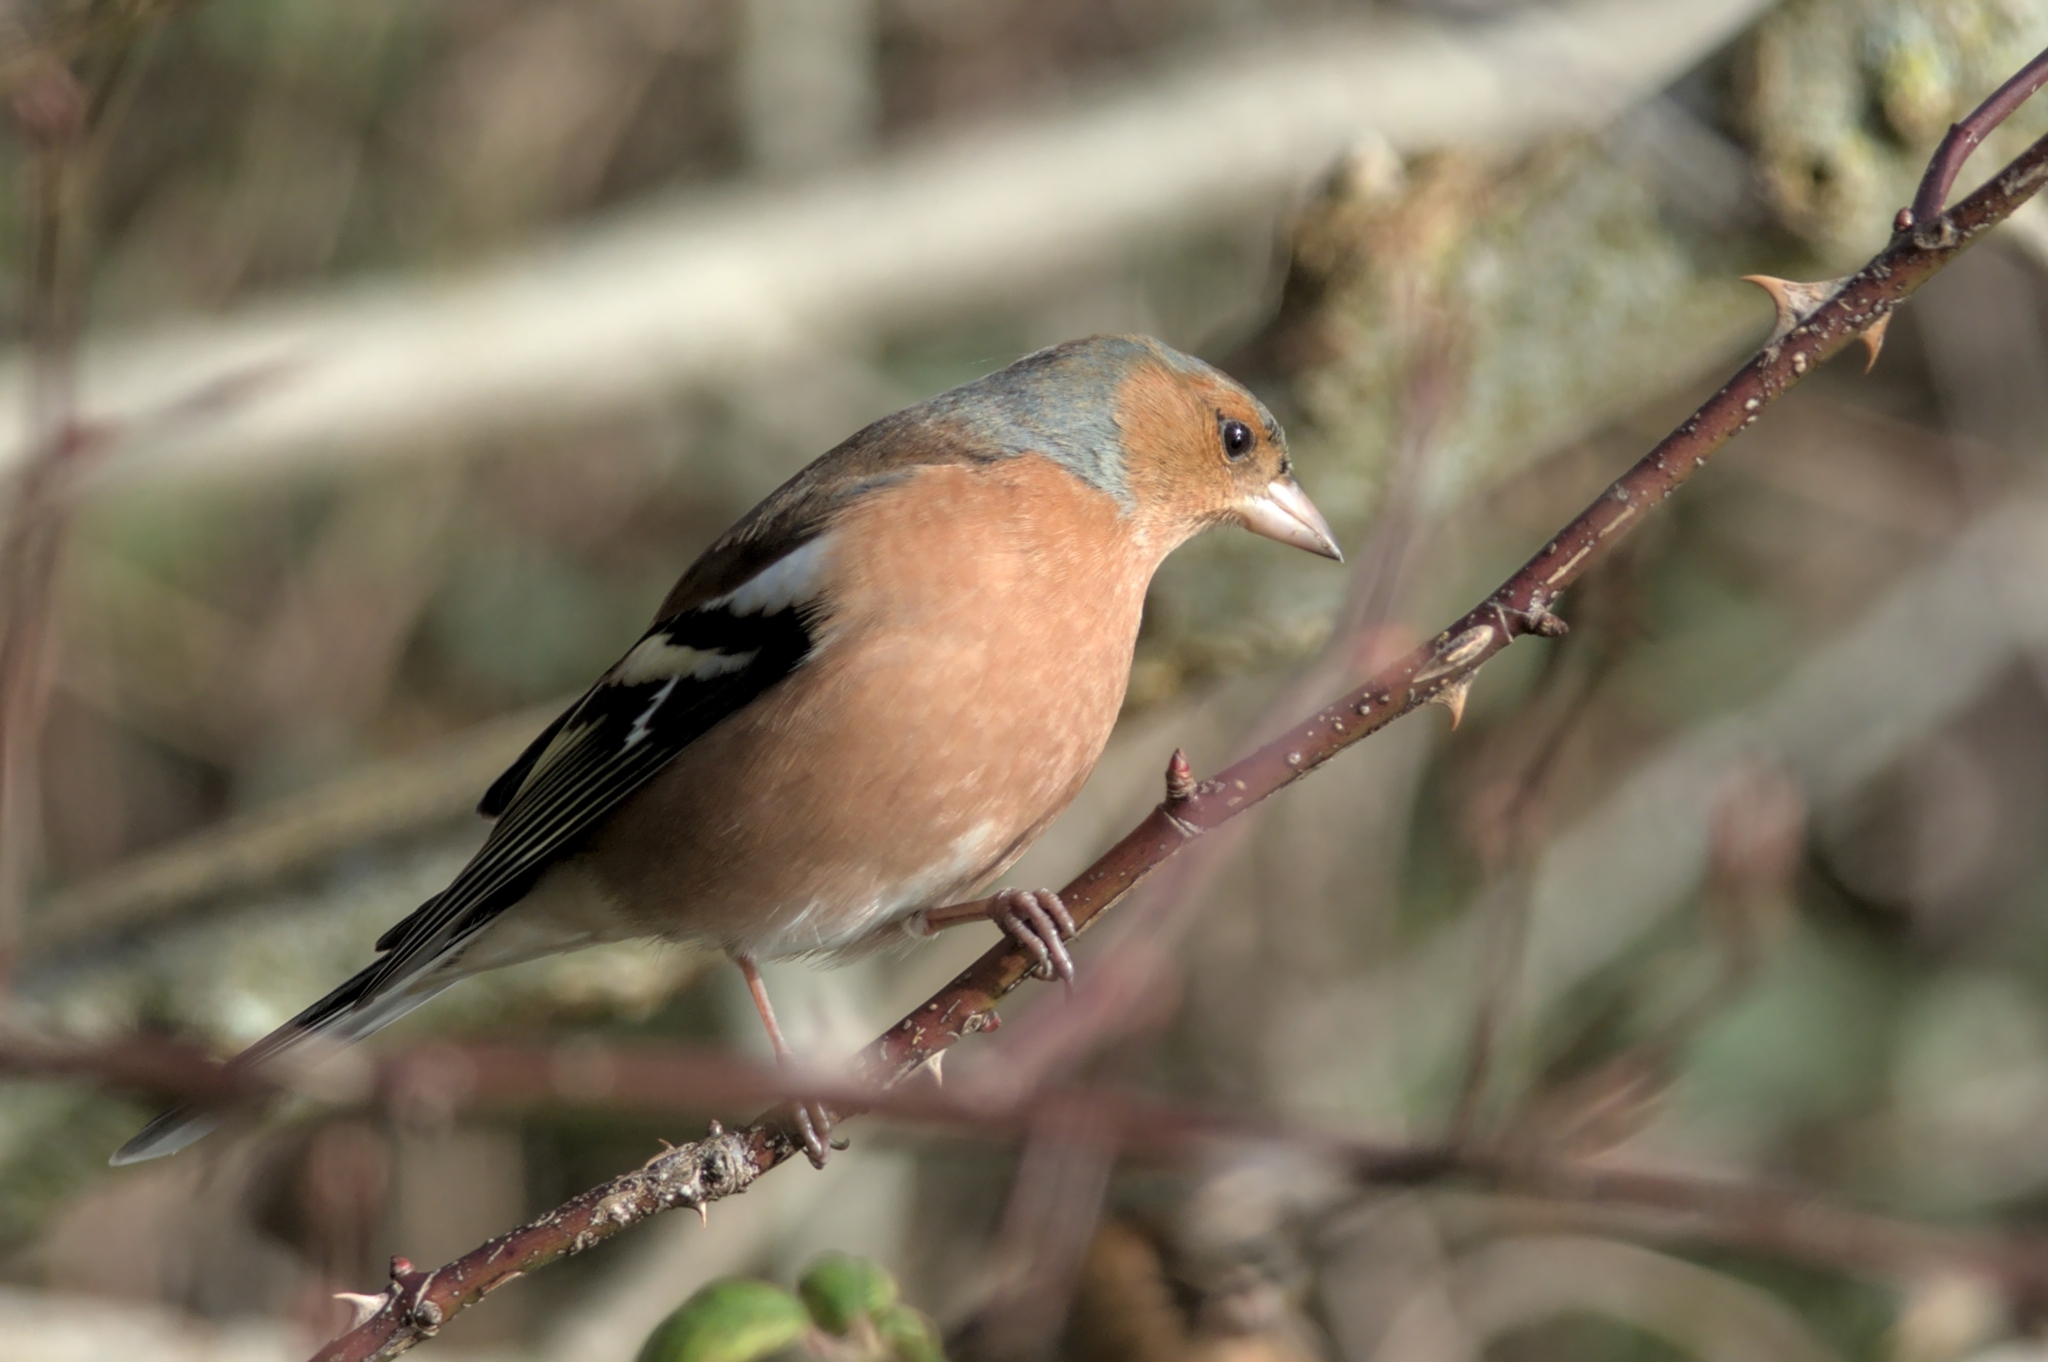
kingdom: Animalia
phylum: Chordata
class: Aves
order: Passeriformes
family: Fringillidae
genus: Fringilla
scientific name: Fringilla coelebs
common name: Common chaffinch
